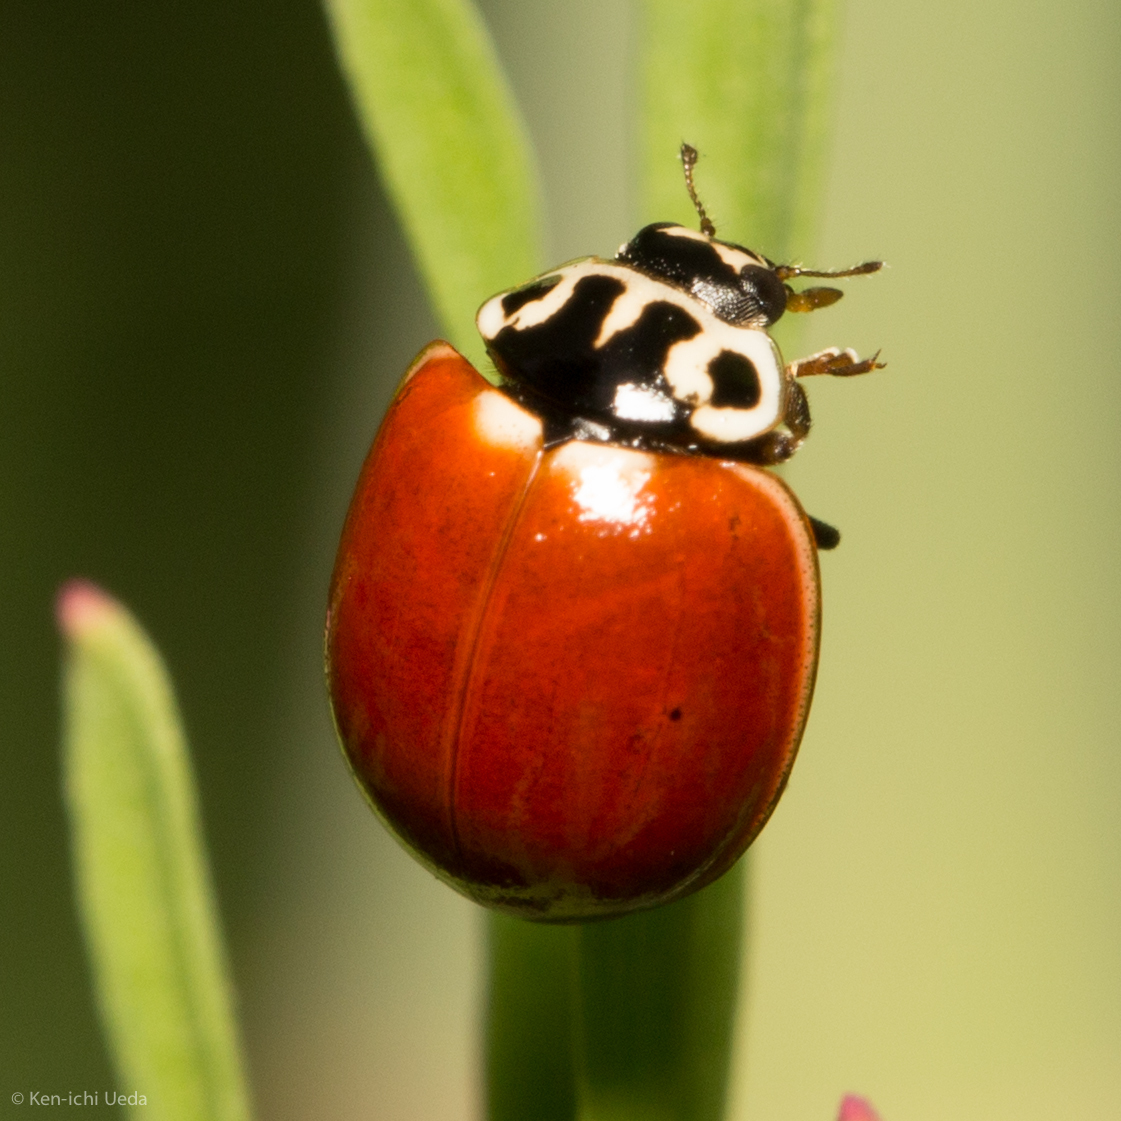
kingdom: Animalia
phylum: Arthropoda
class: Insecta
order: Coleoptera
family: Coccinellidae
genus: Cycloneda
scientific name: Cycloneda polita
